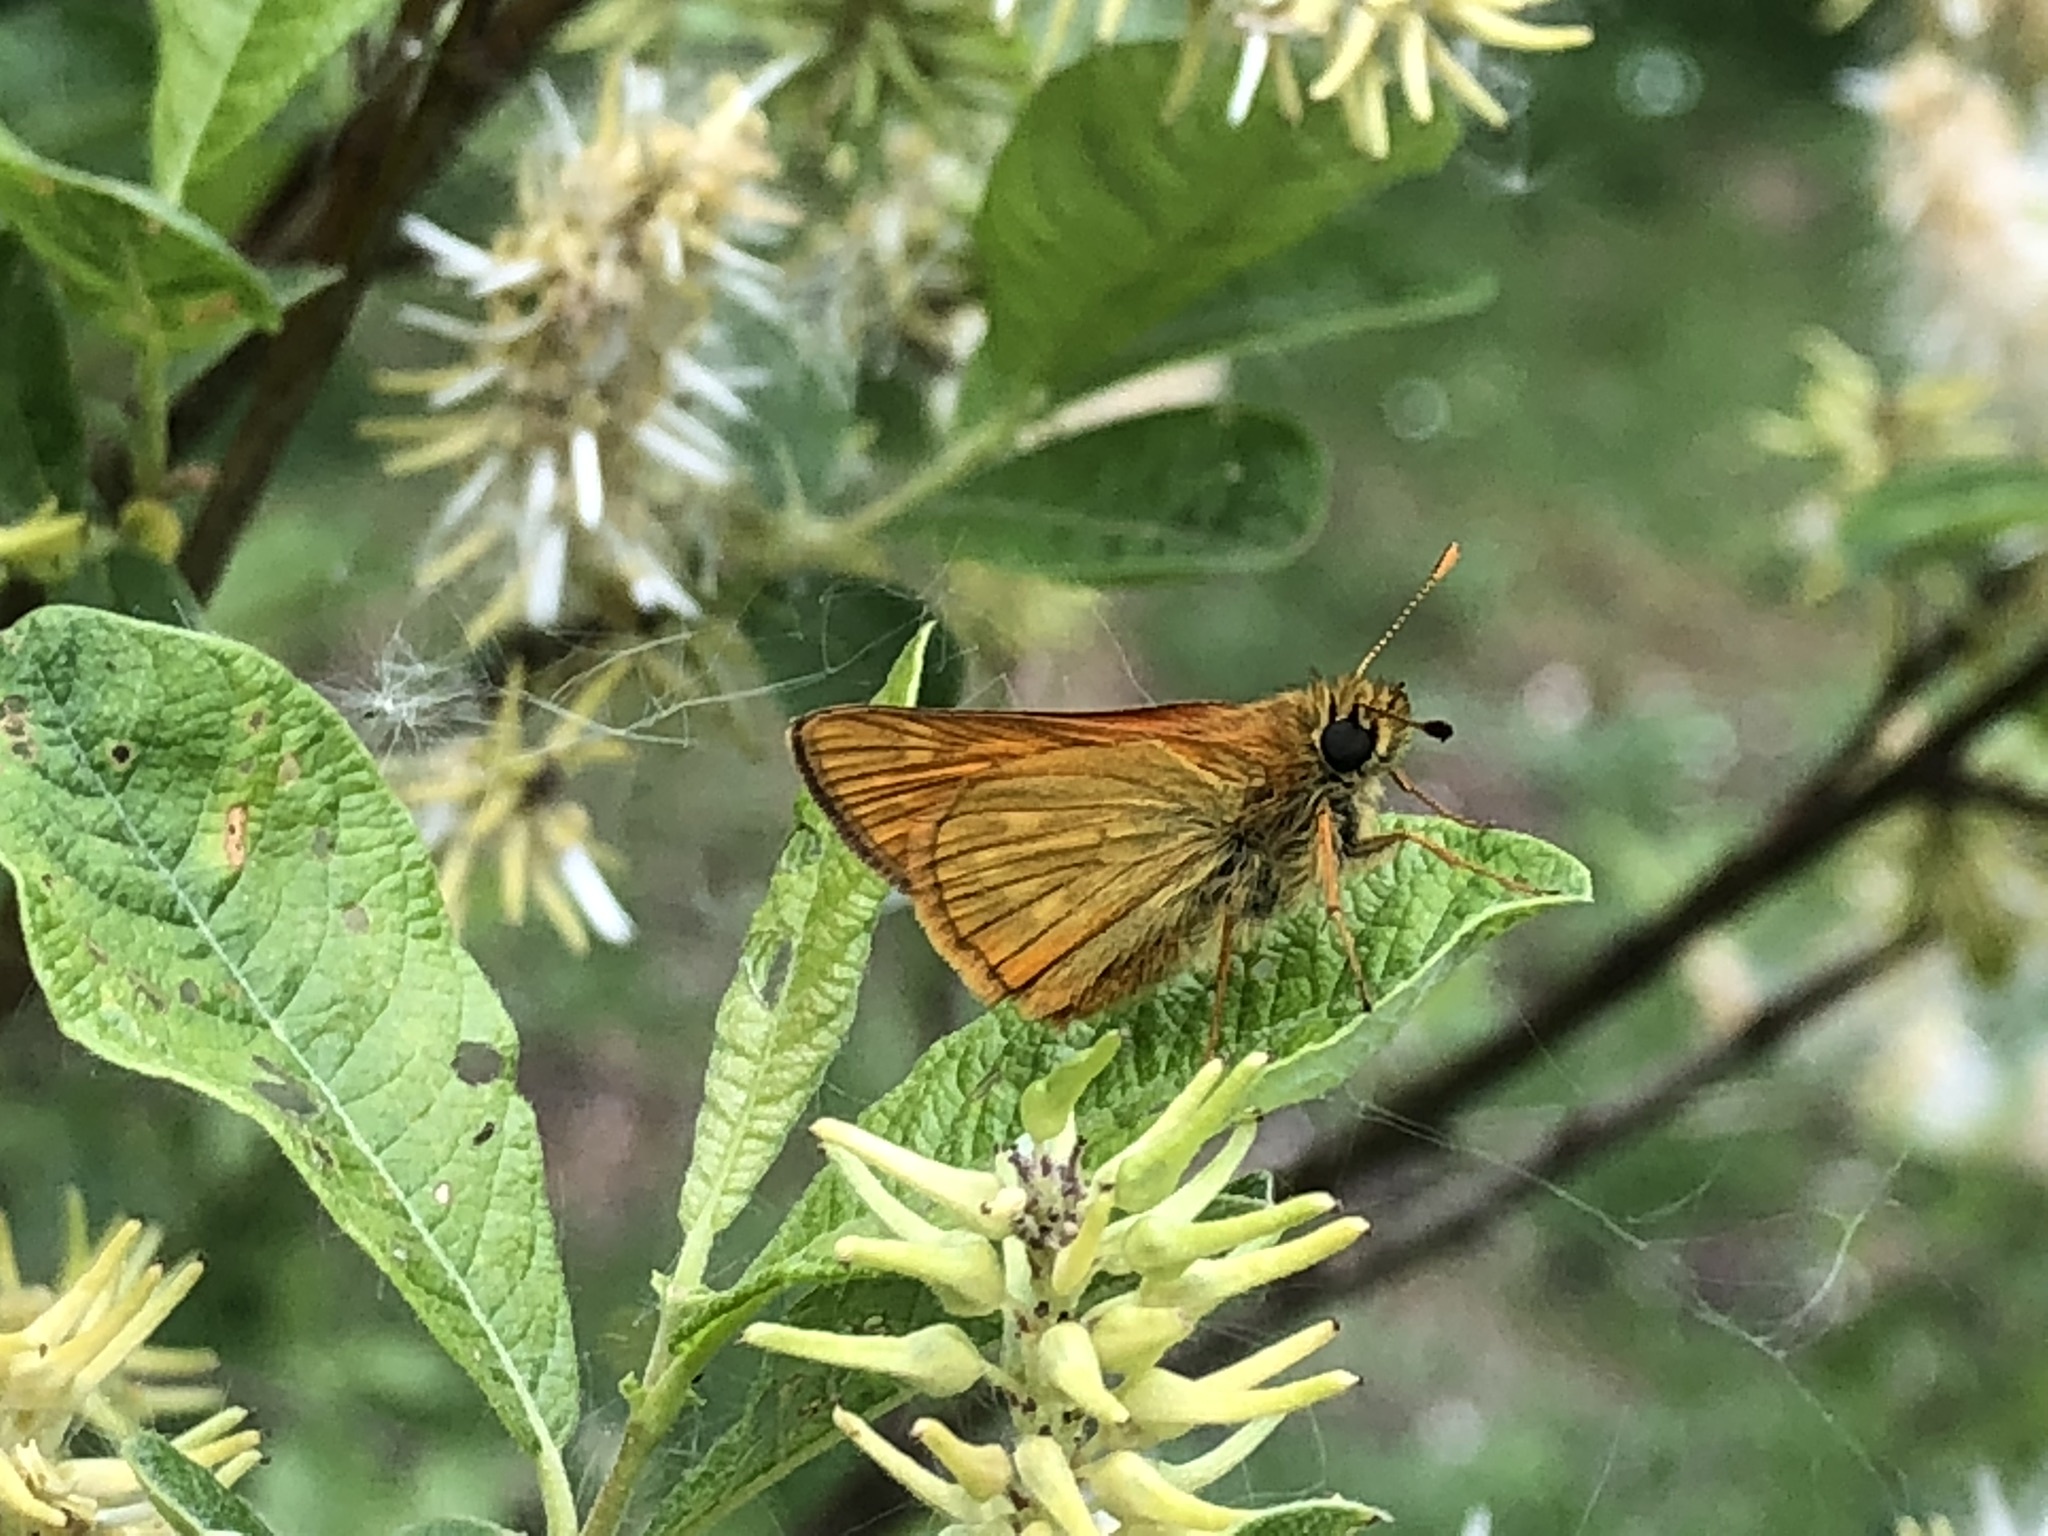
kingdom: Animalia
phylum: Arthropoda
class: Insecta
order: Lepidoptera
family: Hesperiidae
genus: Ochlodes
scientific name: Ochlodes venata
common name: Large skipper
